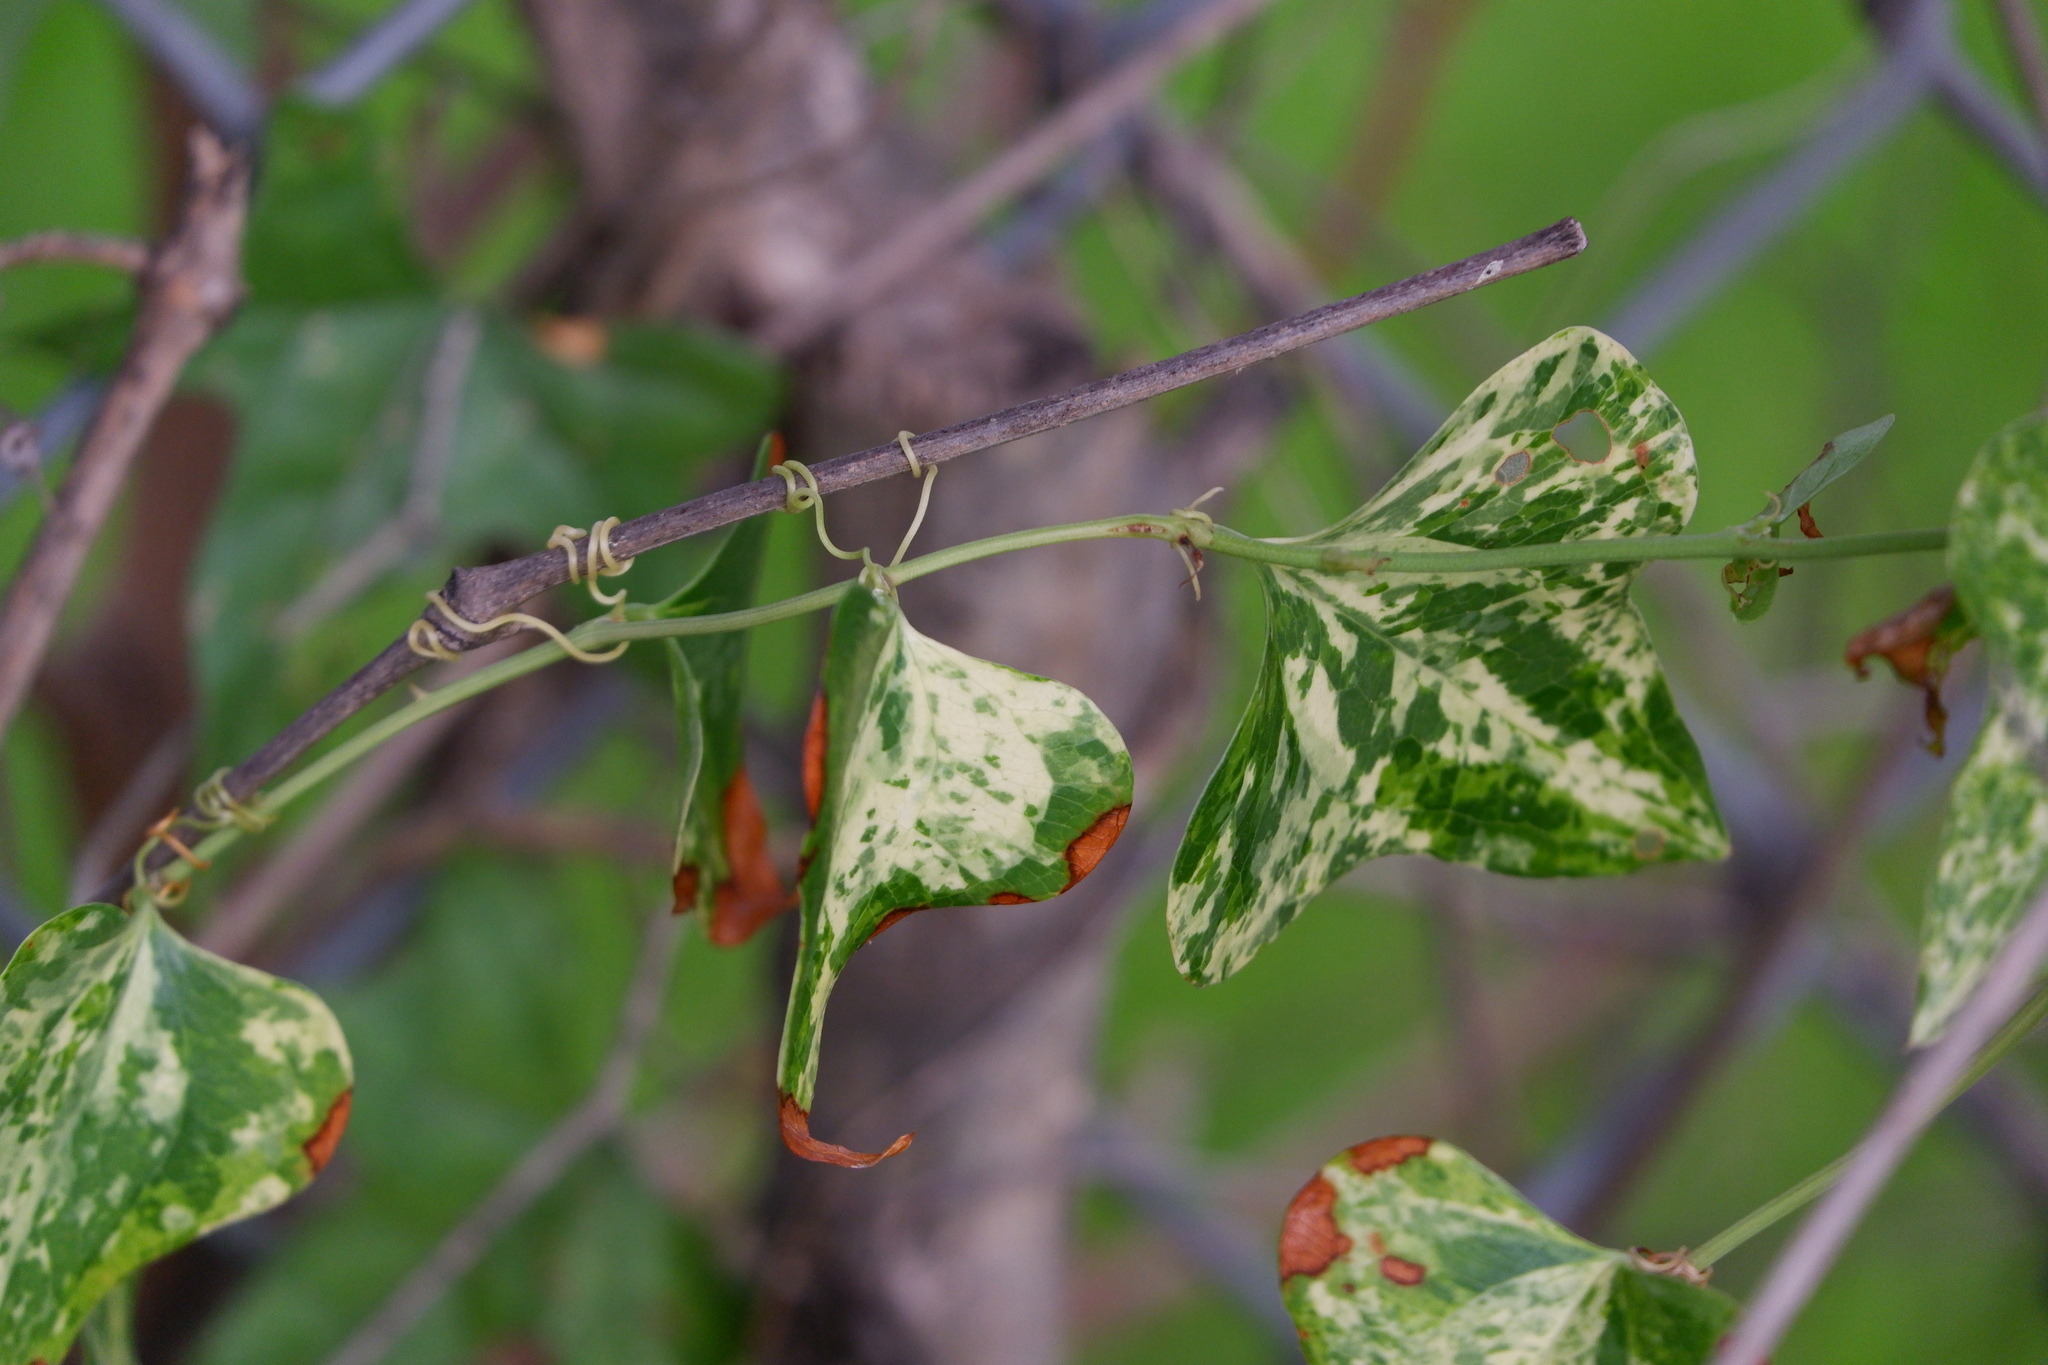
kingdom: Plantae
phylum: Tracheophyta
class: Liliopsida
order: Liliales
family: Smilacaceae
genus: Smilax
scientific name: Smilax bona-nox
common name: Catbrier
